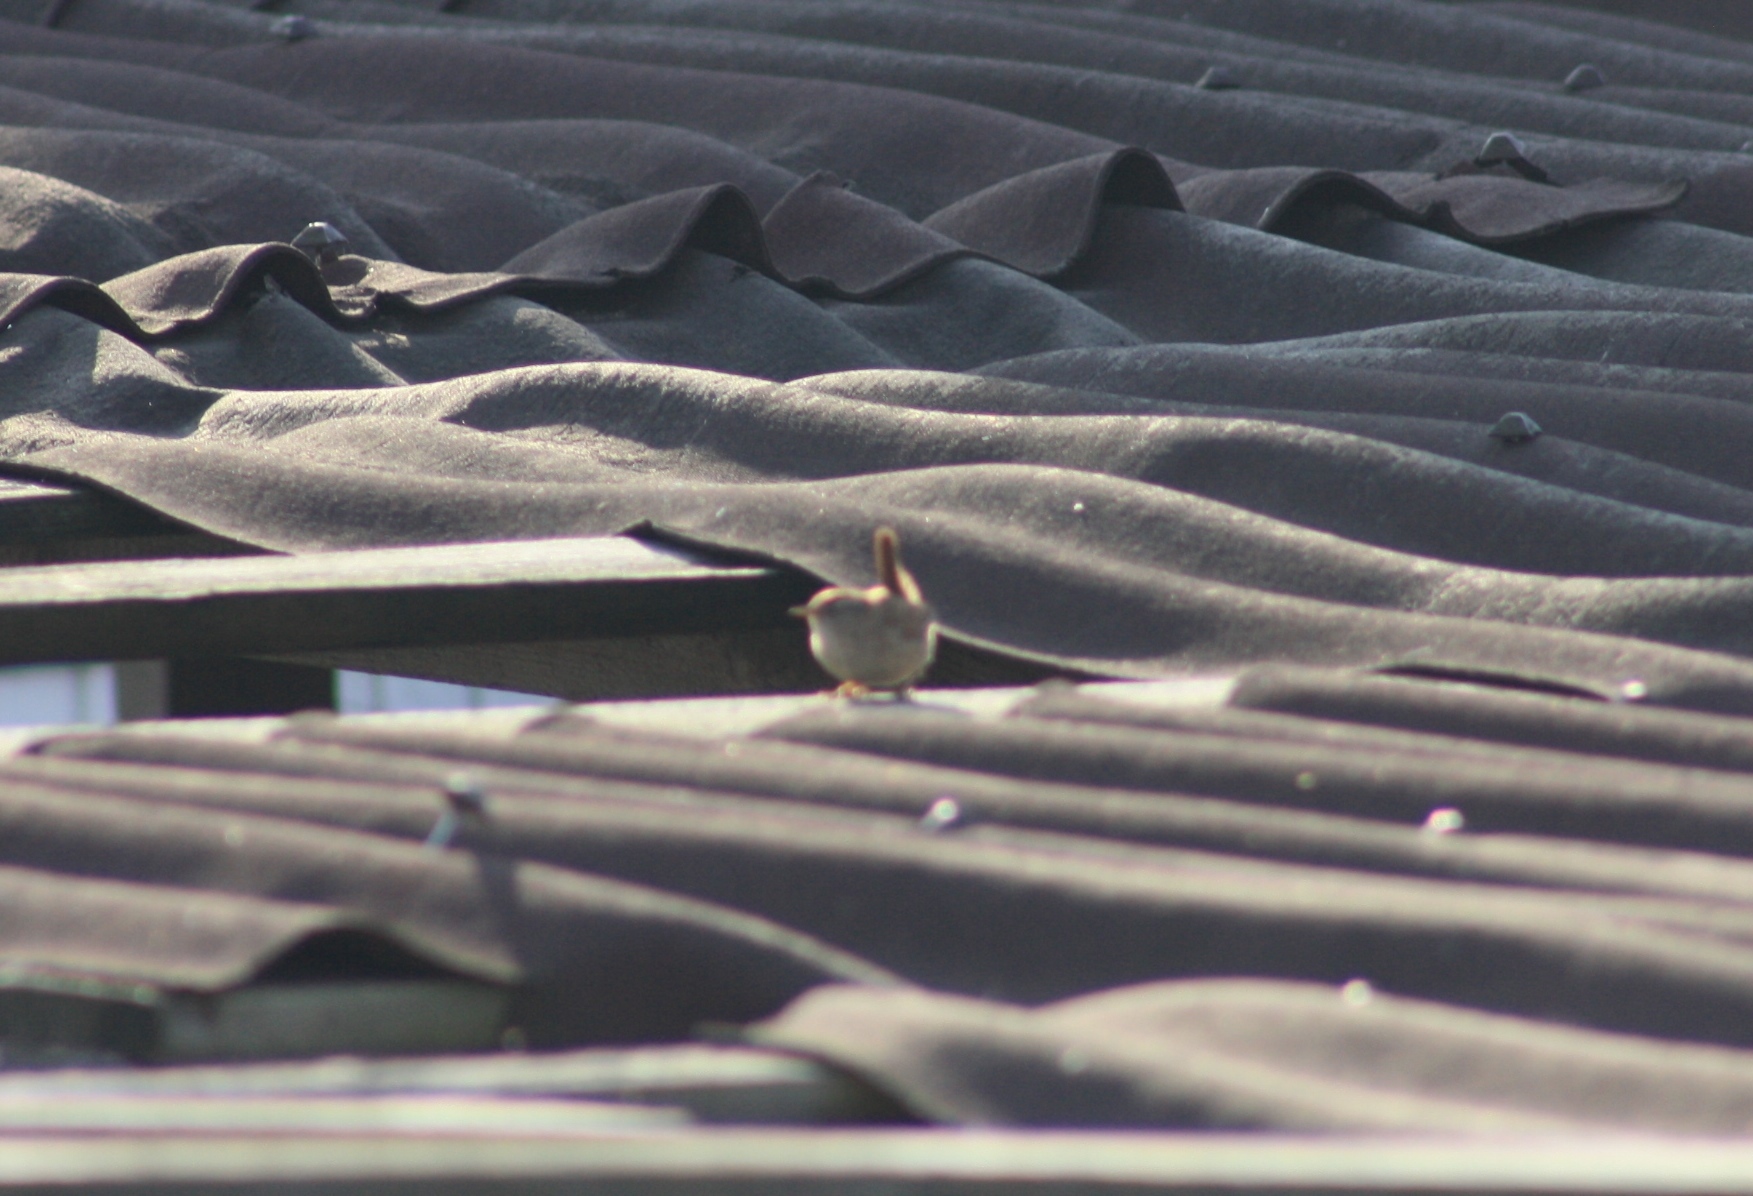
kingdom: Animalia
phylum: Chordata
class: Aves
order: Passeriformes
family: Troglodytidae
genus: Troglodytes
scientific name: Troglodytes troglodytes
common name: Eurasian wren
